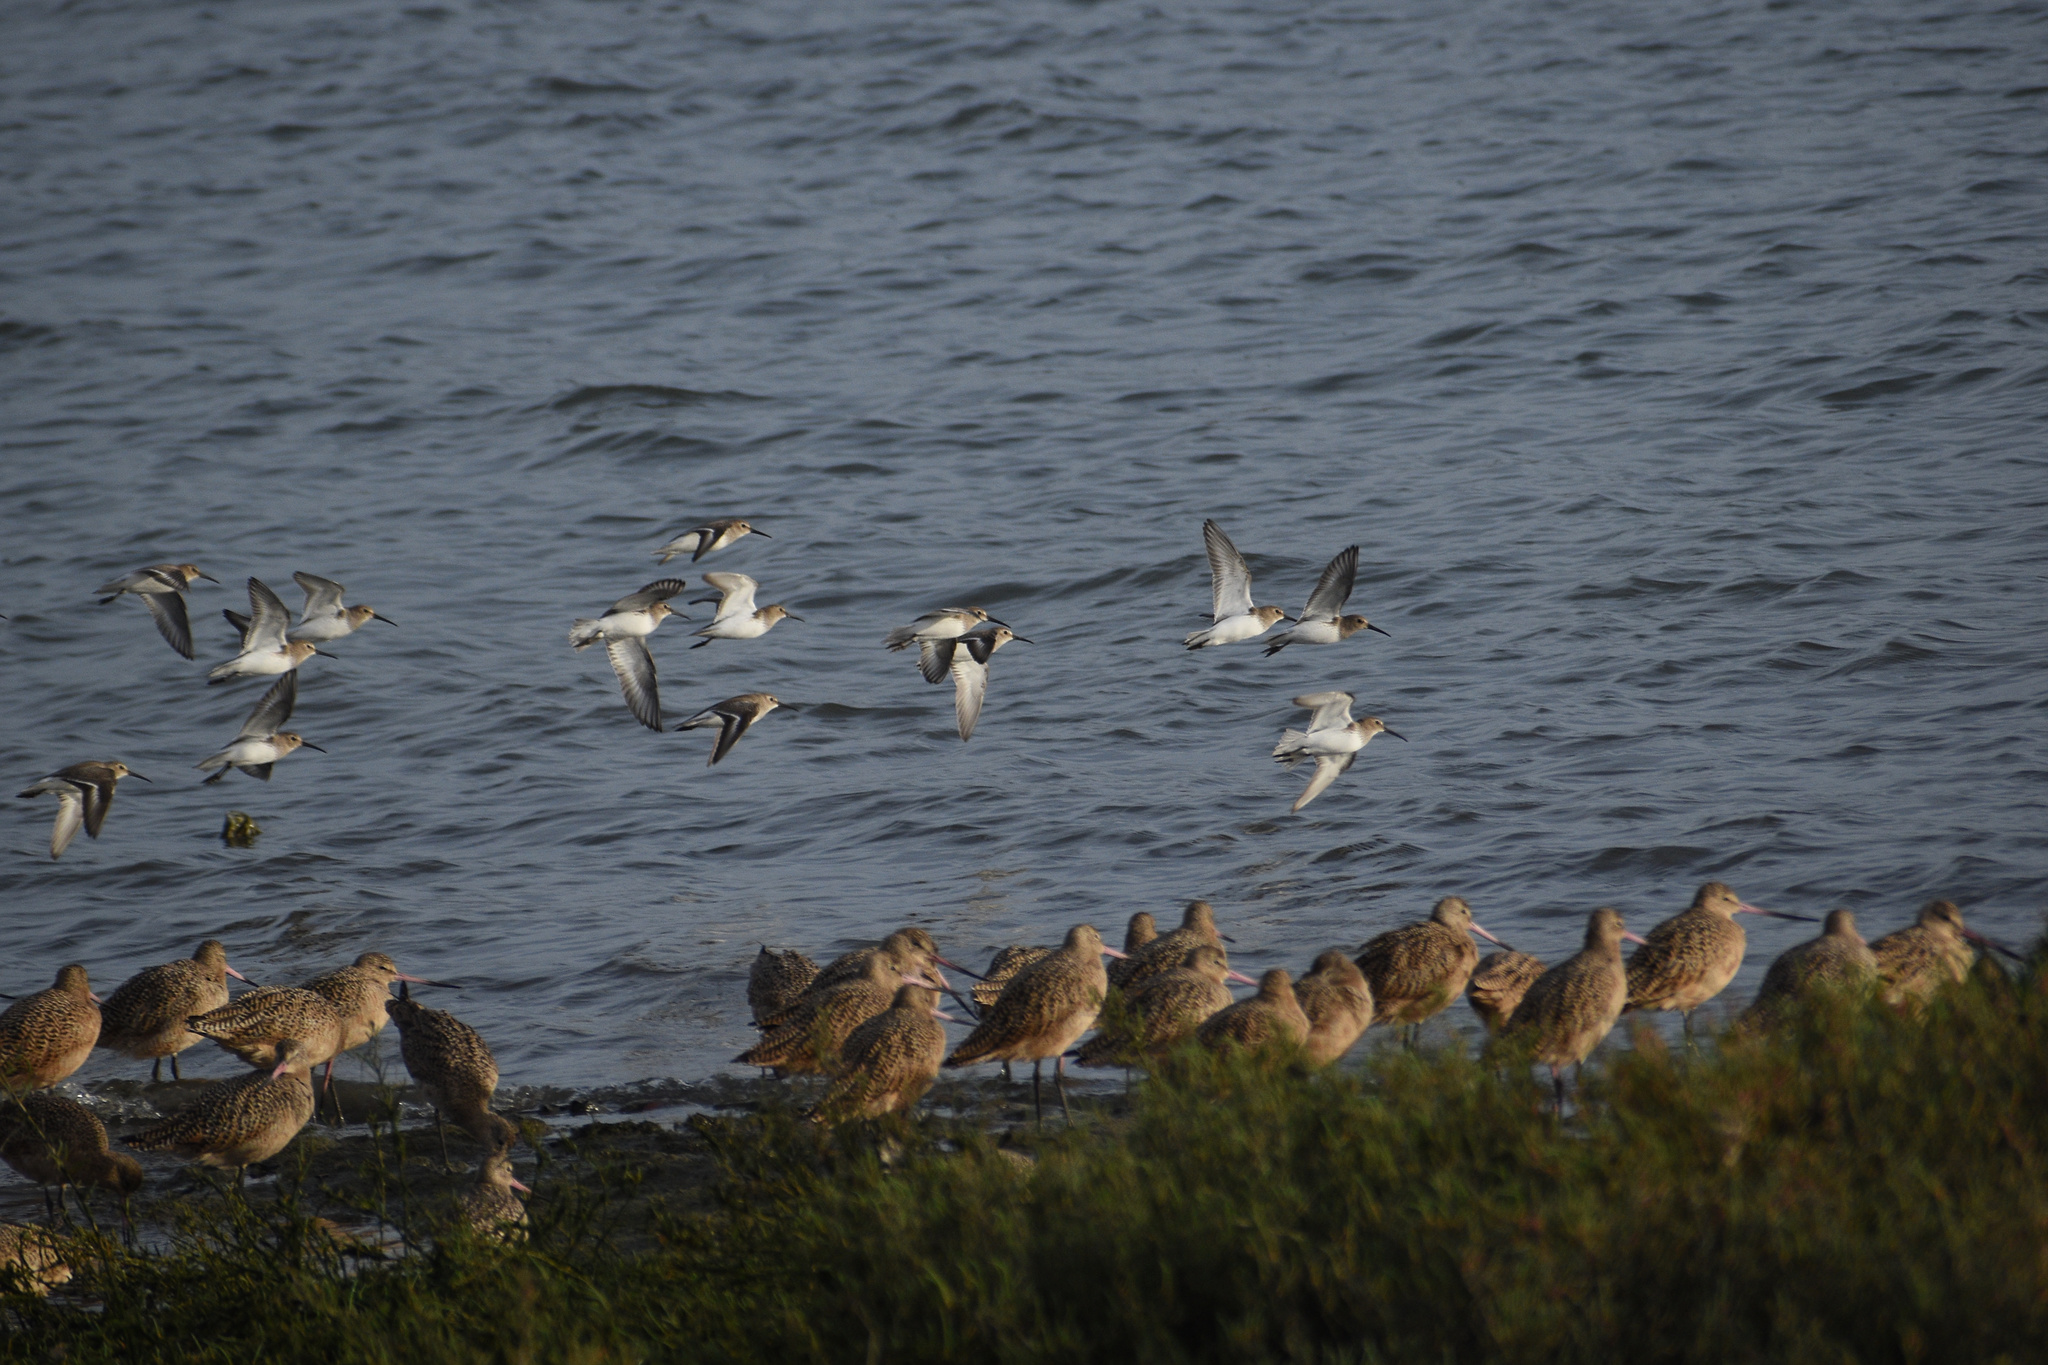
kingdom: Animalia
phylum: Chordata
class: Aves
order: Charadriiformes
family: Scolopacidae
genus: Calidris
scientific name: Calidris alpina
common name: Dunlin
